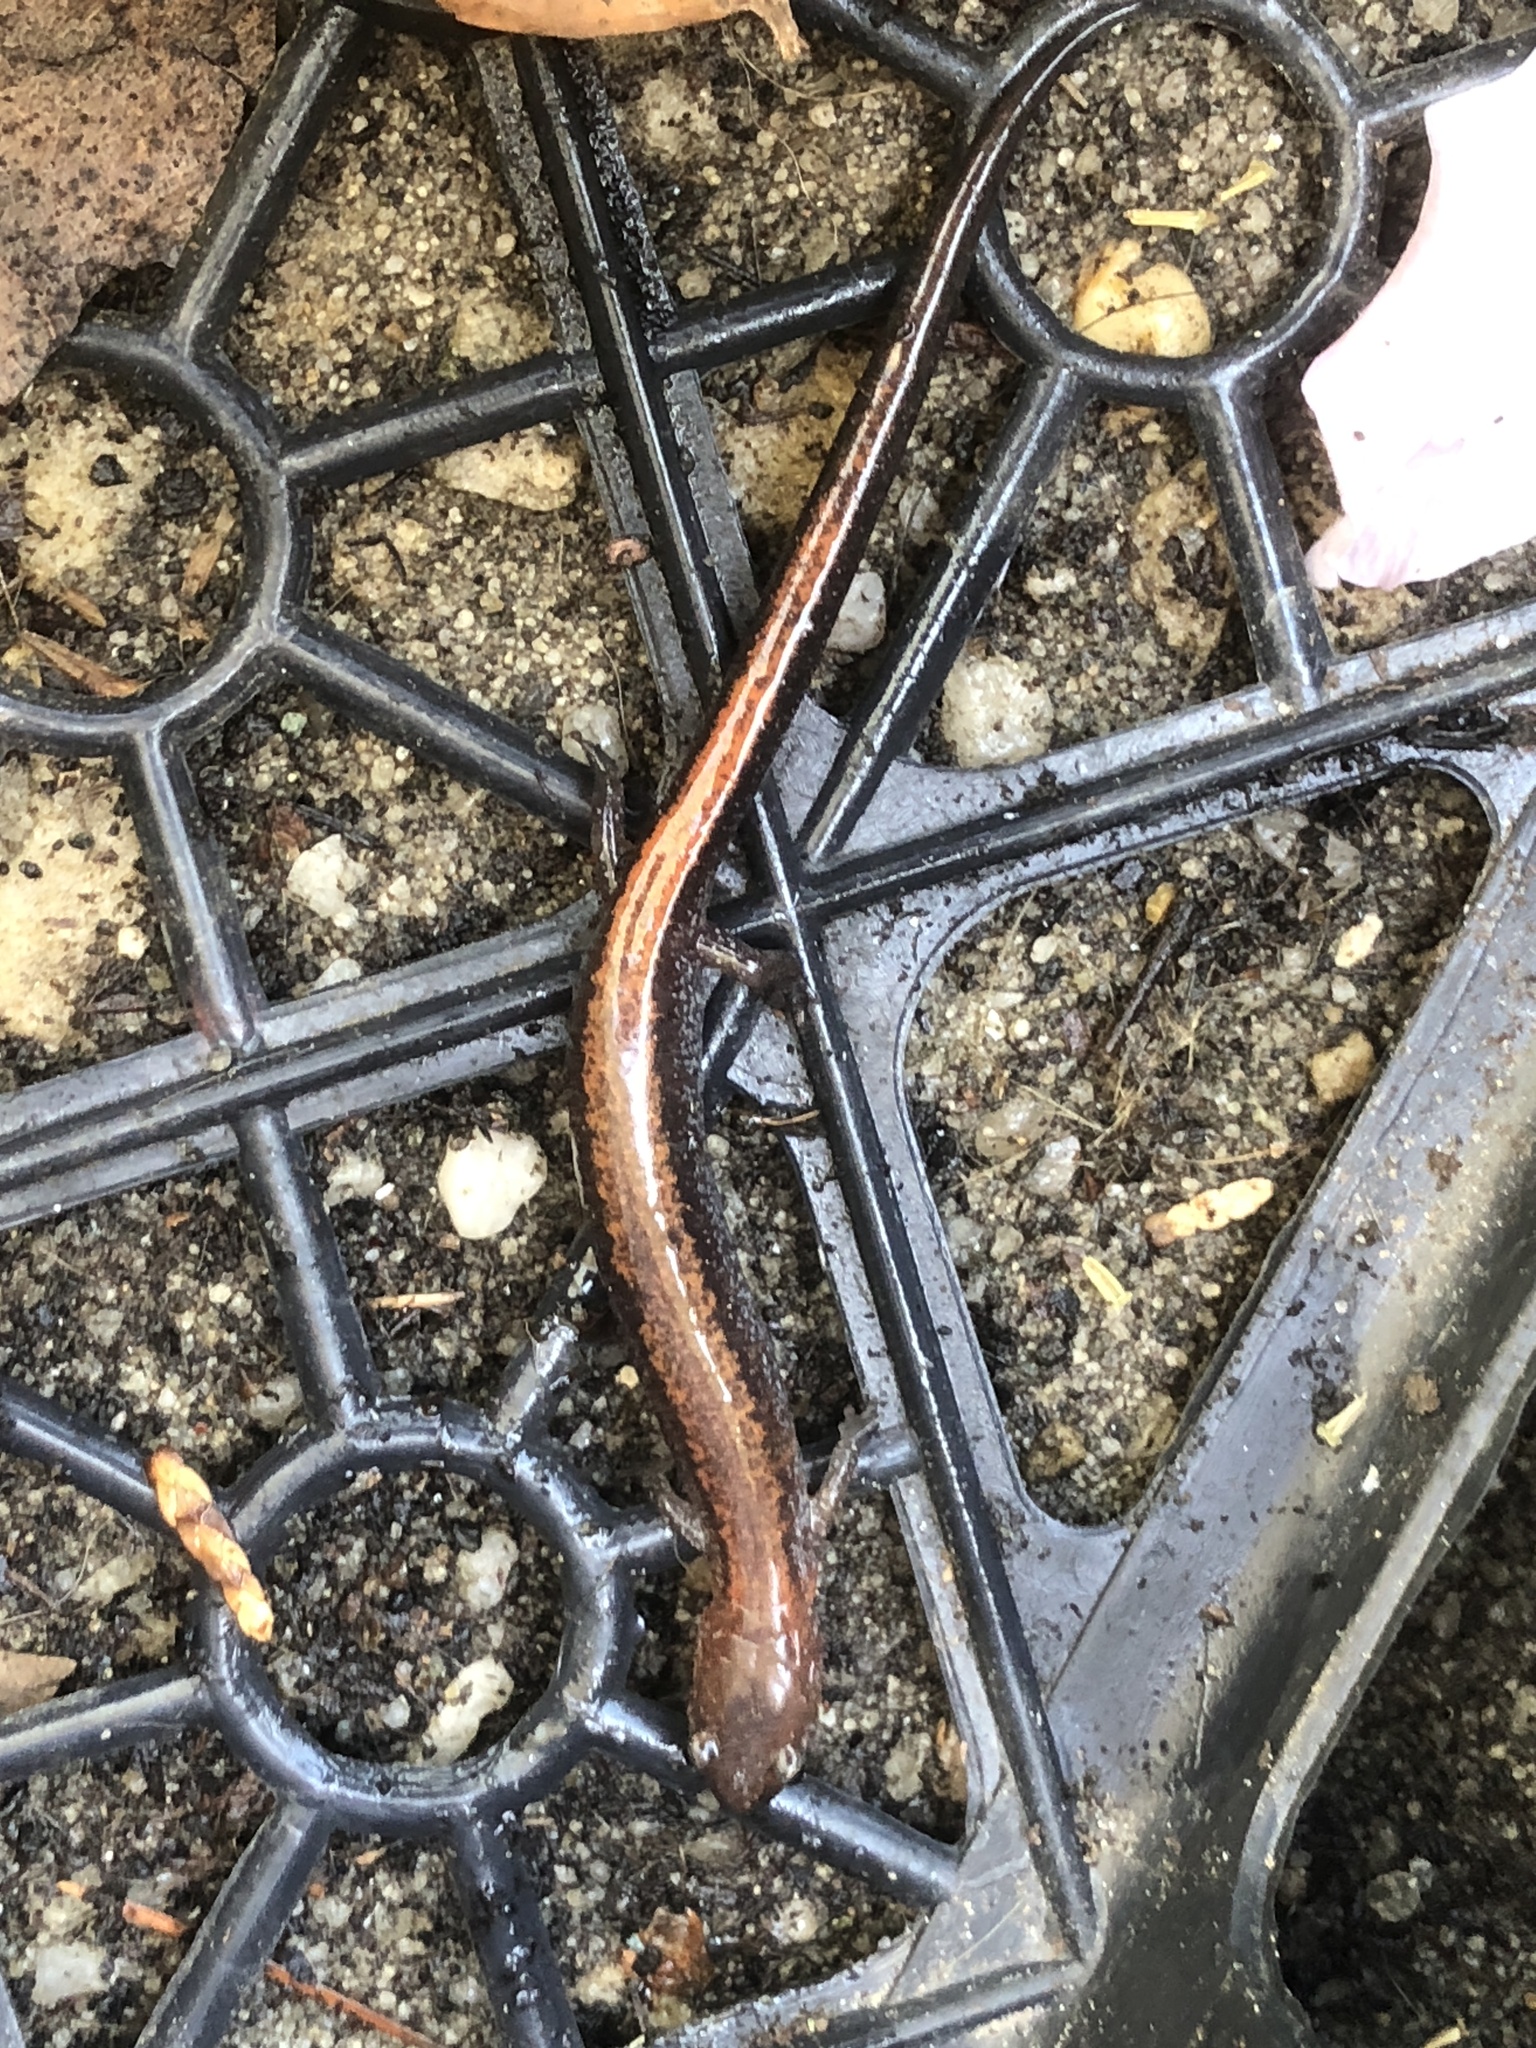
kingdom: Animalia
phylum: Chordata
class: Amphibia
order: Caudata
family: Plethodontidae
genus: Plethodon
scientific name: Plethodon cinereus
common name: Redback salamander
